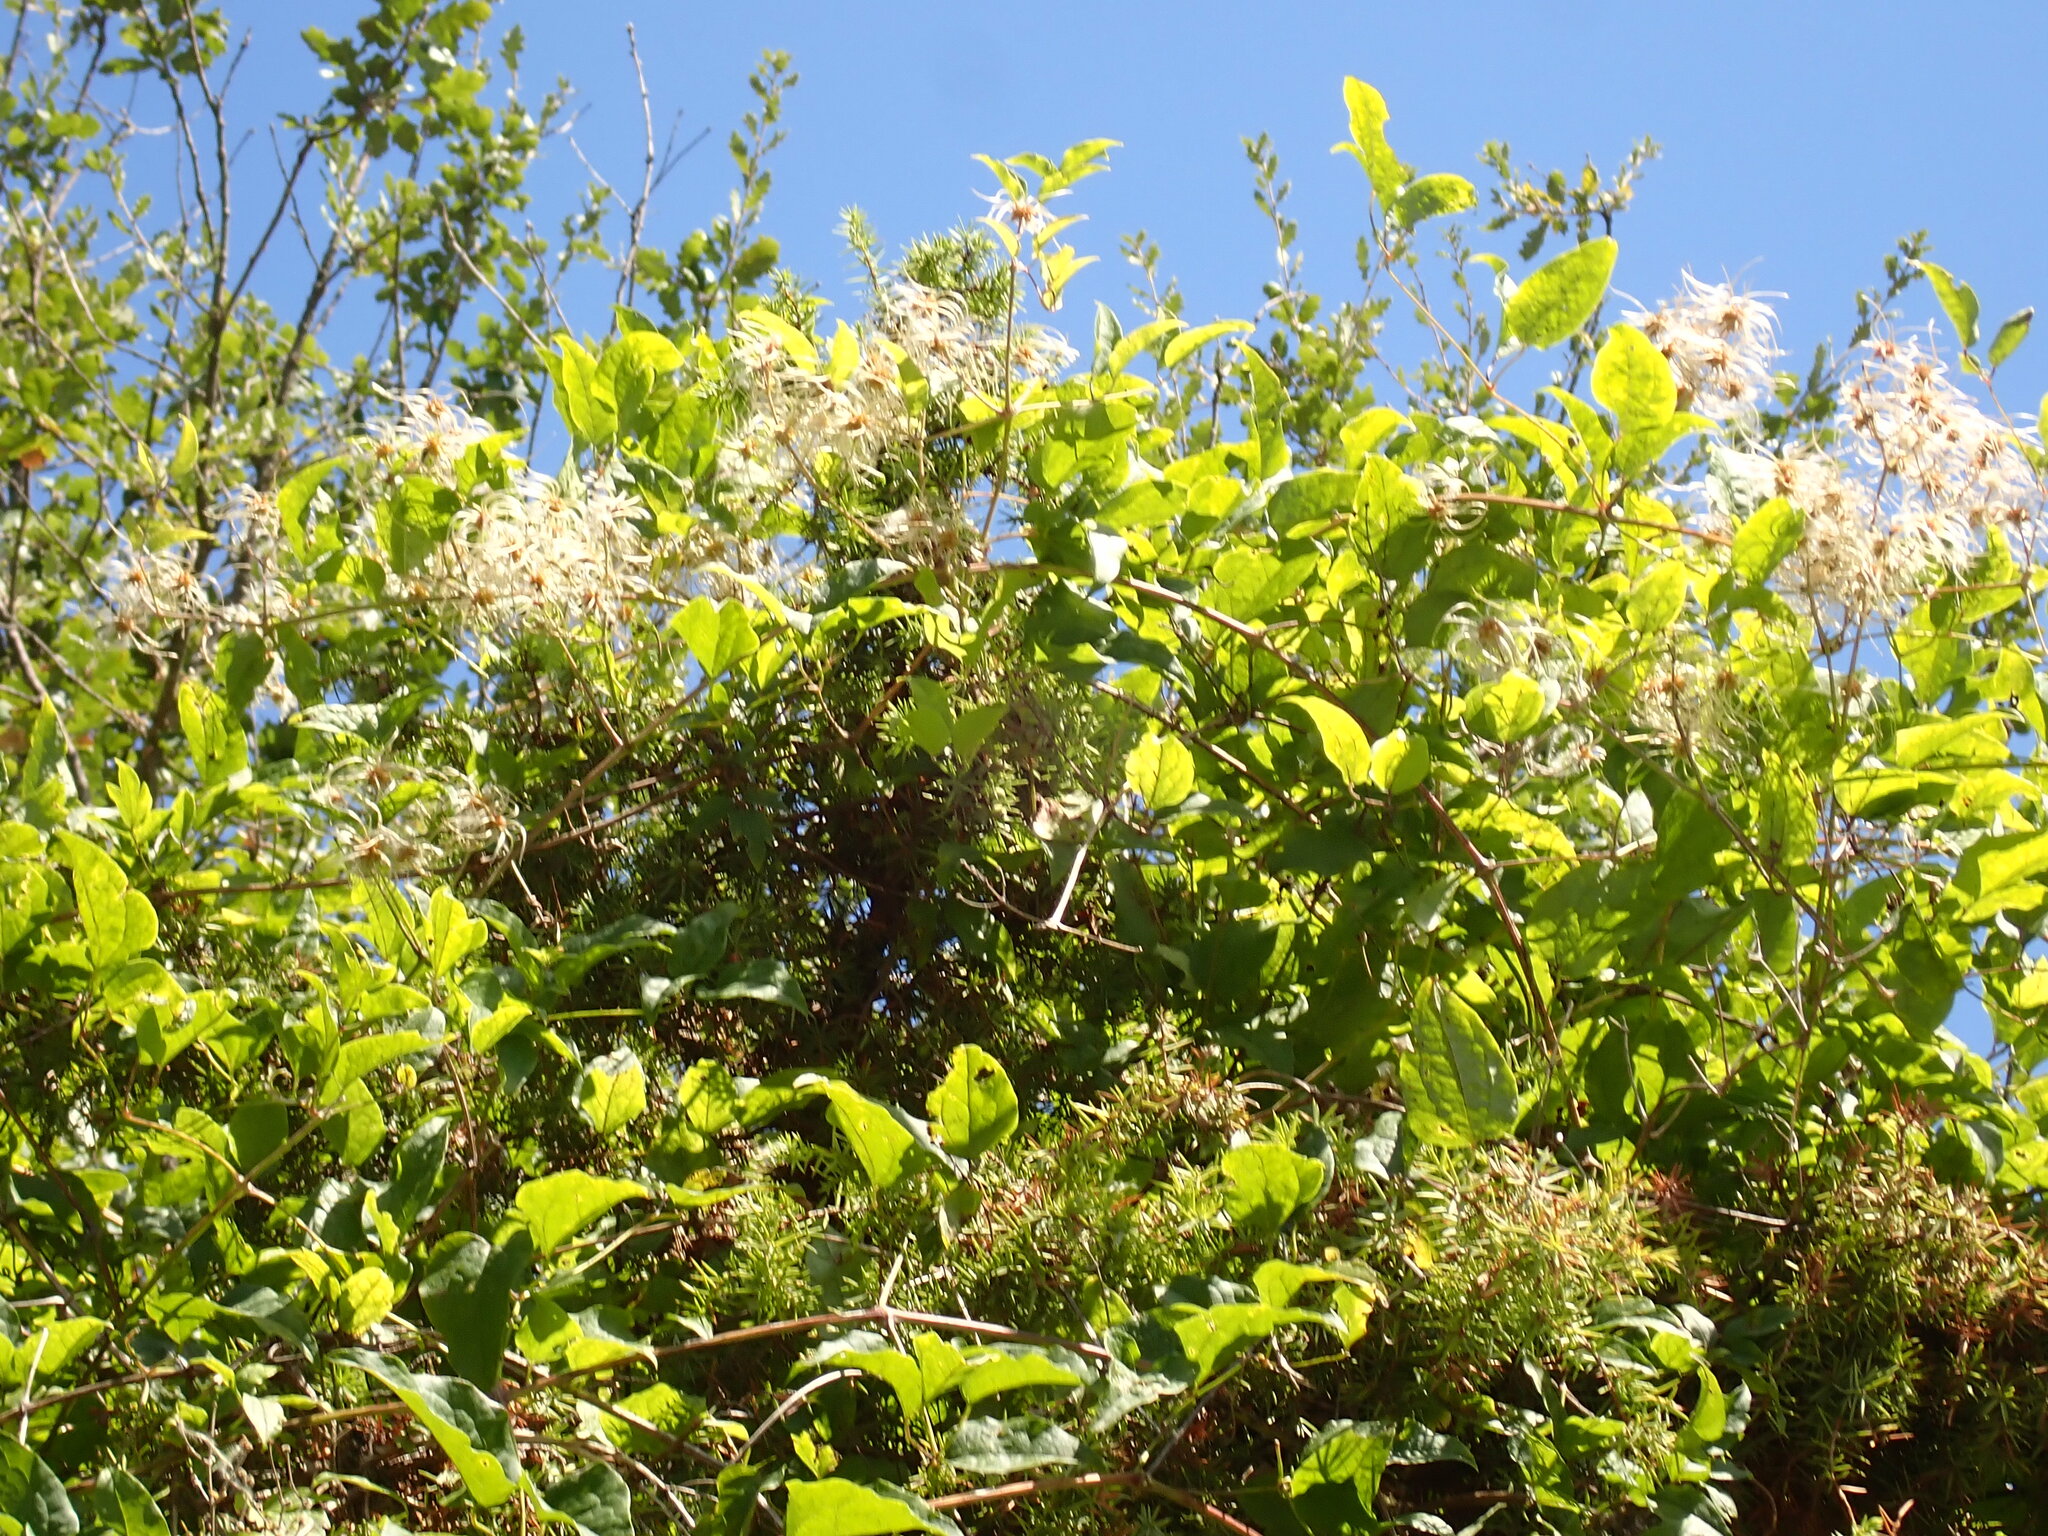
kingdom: Plantae
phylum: Tracheophyta
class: Magnoliopsida
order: Ranunculales
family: Ranunculaceae
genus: Clematis
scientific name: Clematis vitalba
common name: Evergreen clematis
